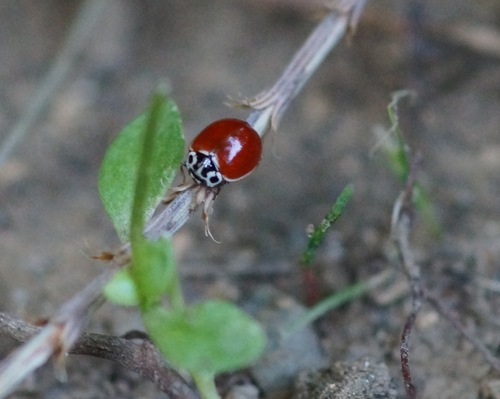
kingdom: Animalia
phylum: Arthropoda
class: Insecta
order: Coleoptera
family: Coccinellidae
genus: Cycloneda
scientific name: Cycloneda polita
